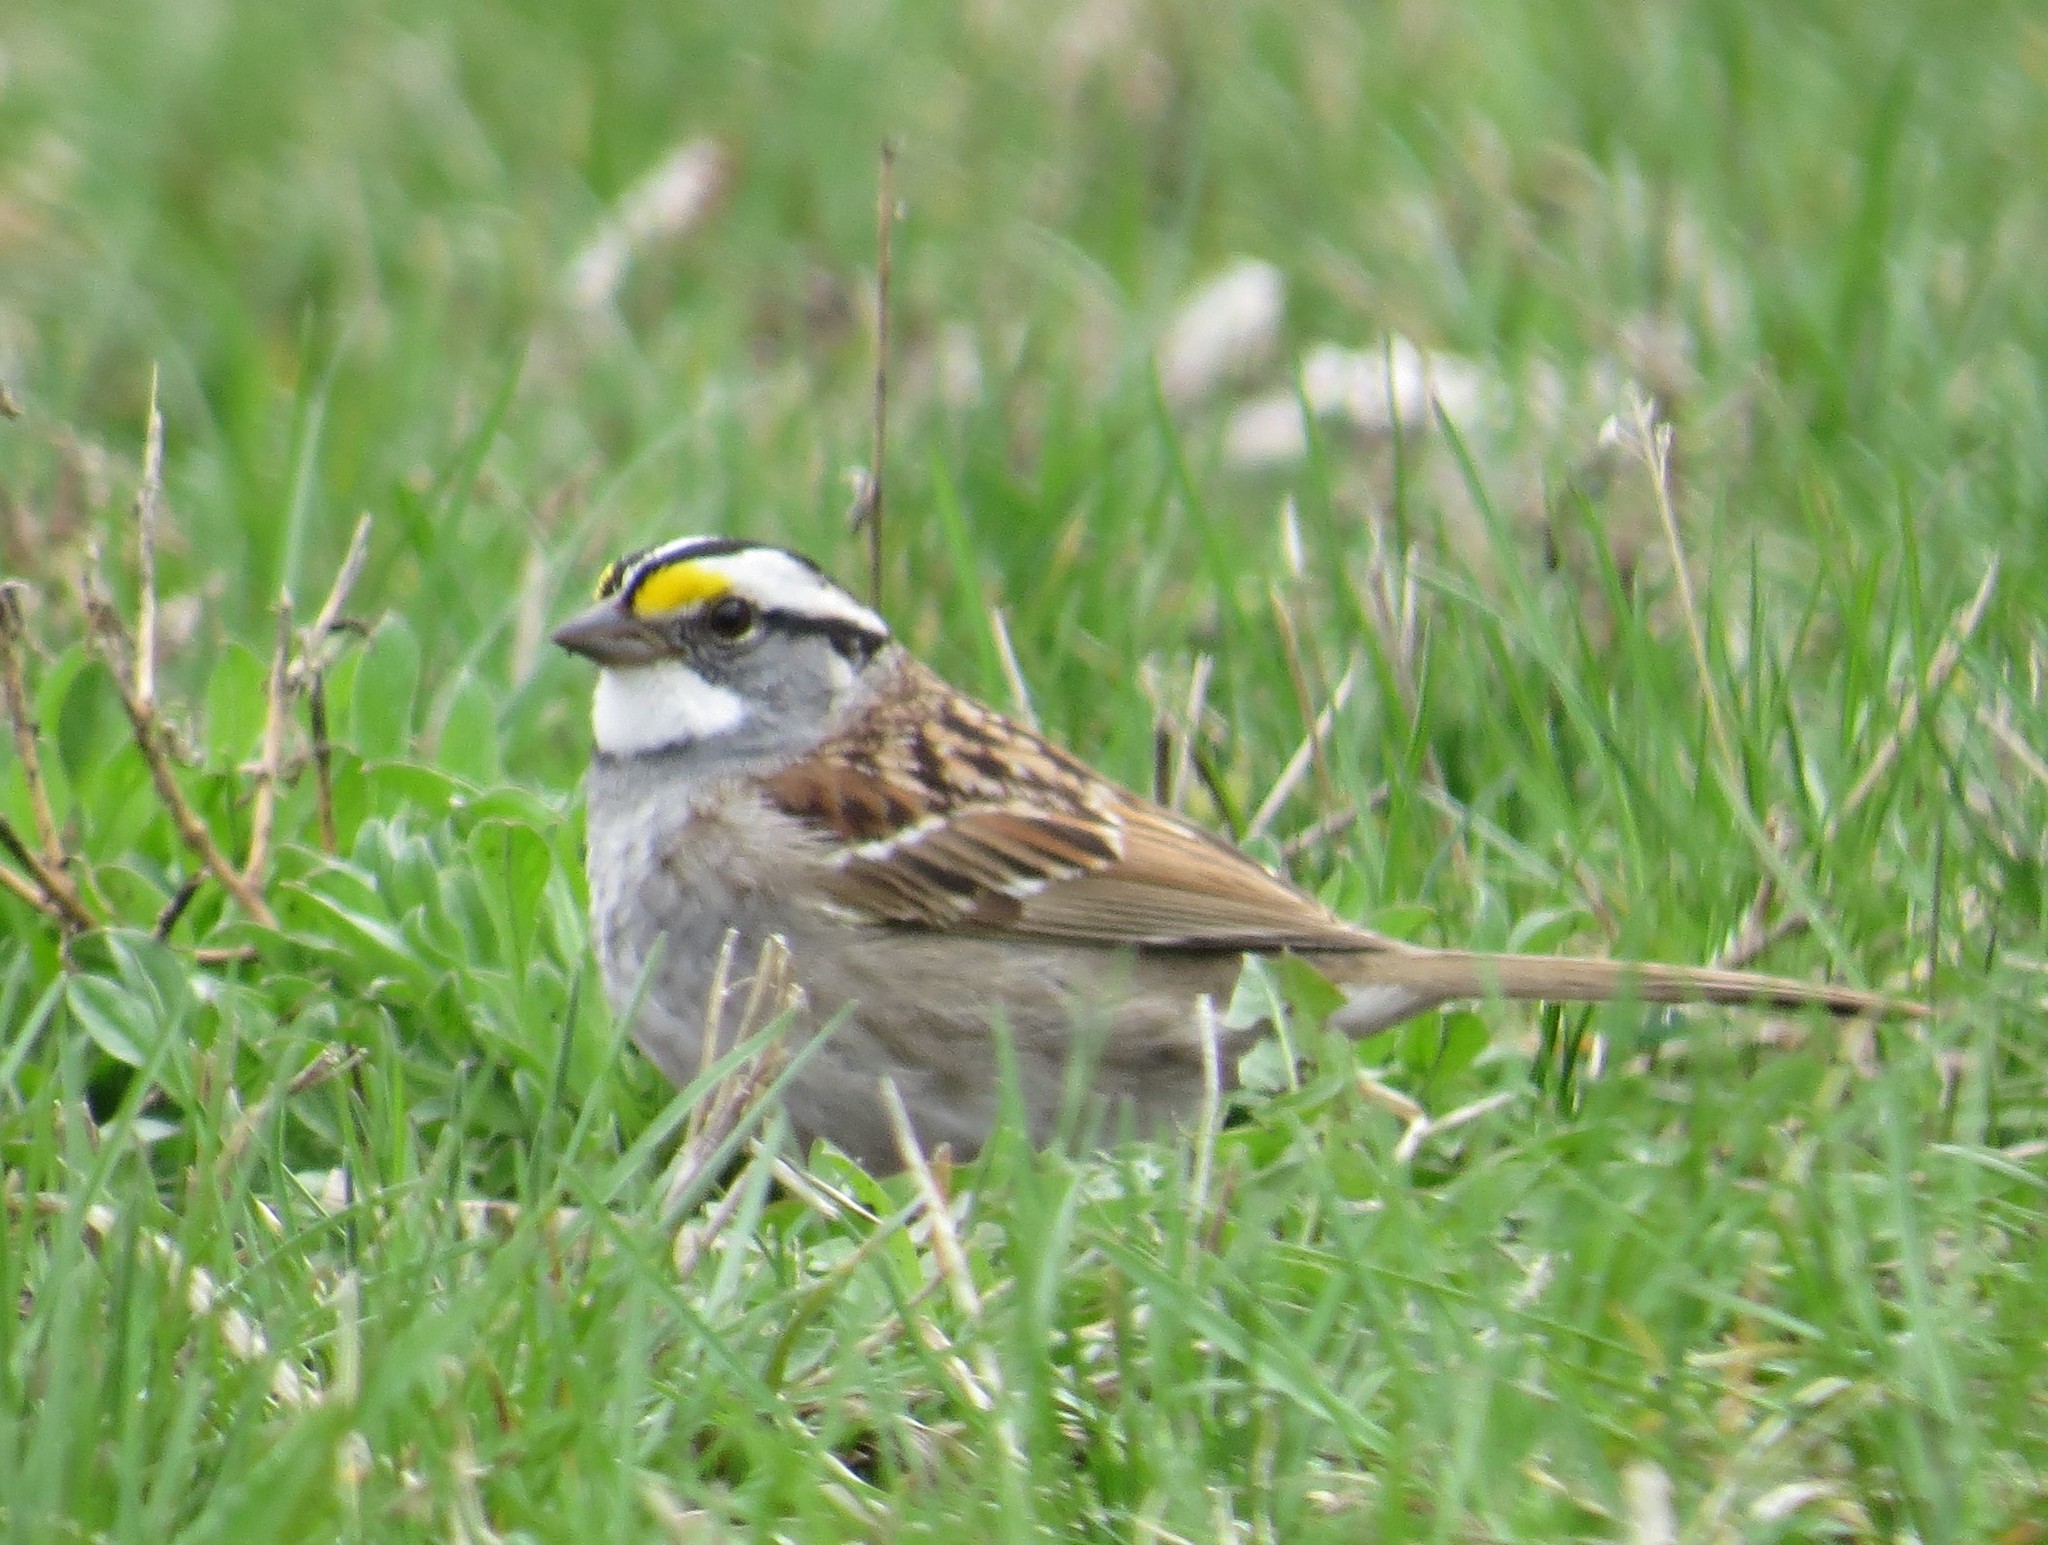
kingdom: Animalia
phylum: Chordata
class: Aves
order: Passeriformes
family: Passerellidae
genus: Zonotrichia
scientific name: Zonotrichia albicollis
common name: White-throated sparrow
